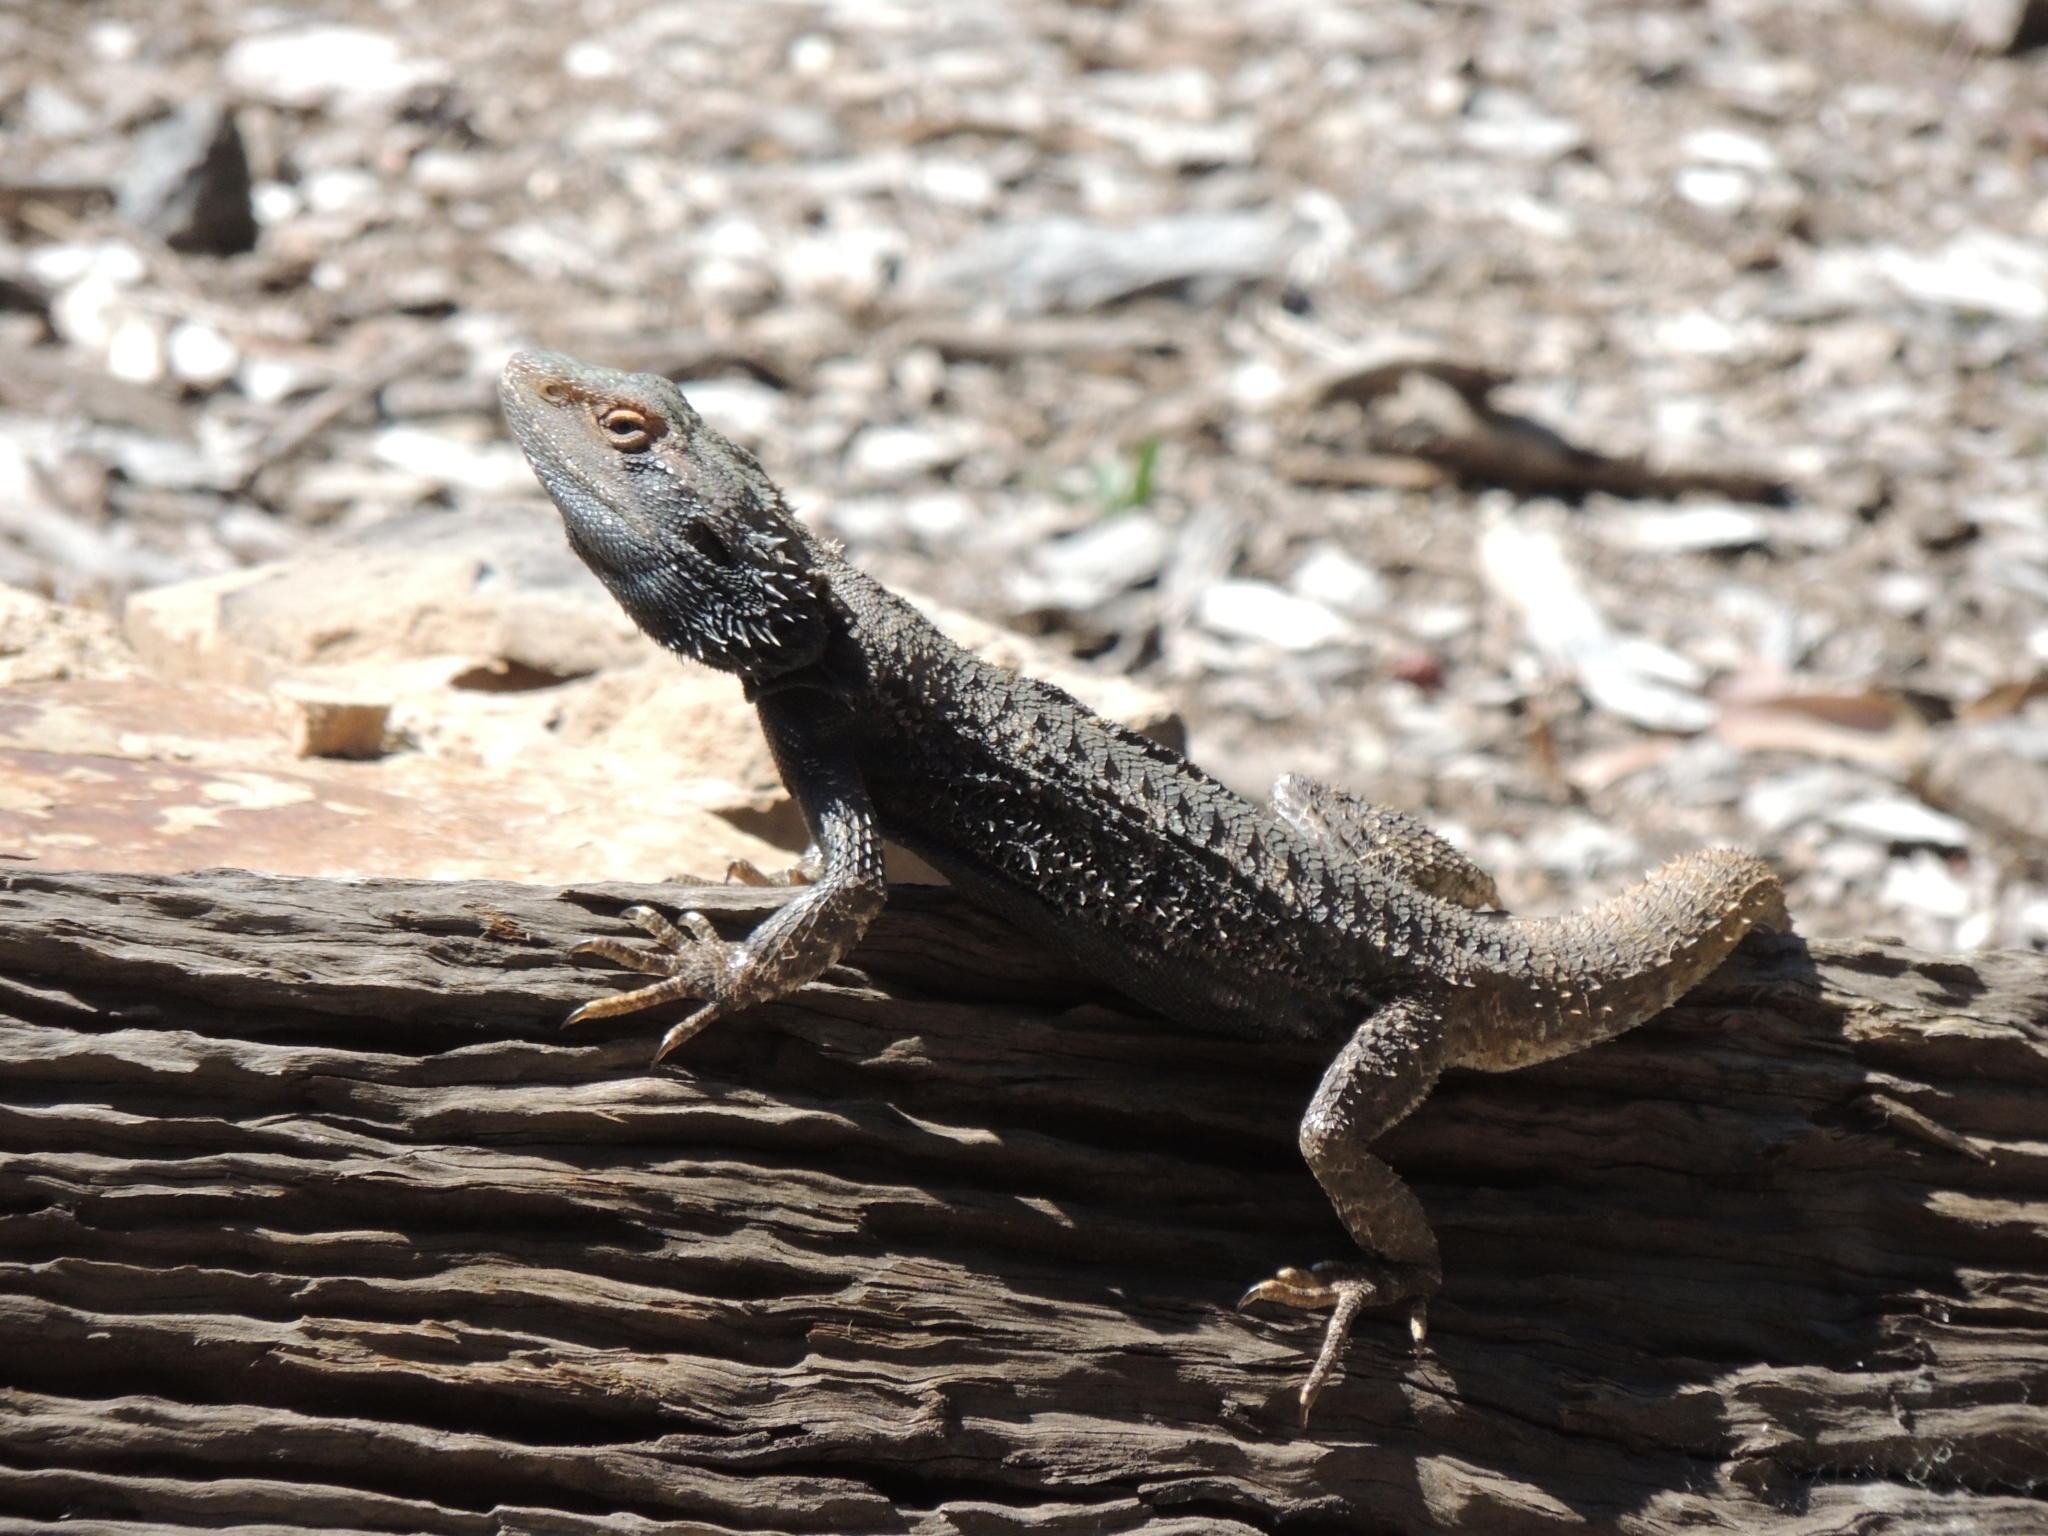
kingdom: Animalia
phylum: Chordata
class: Squamata
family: Agamidae
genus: Pogona
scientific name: Pogona barbata
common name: Bearded dragon
